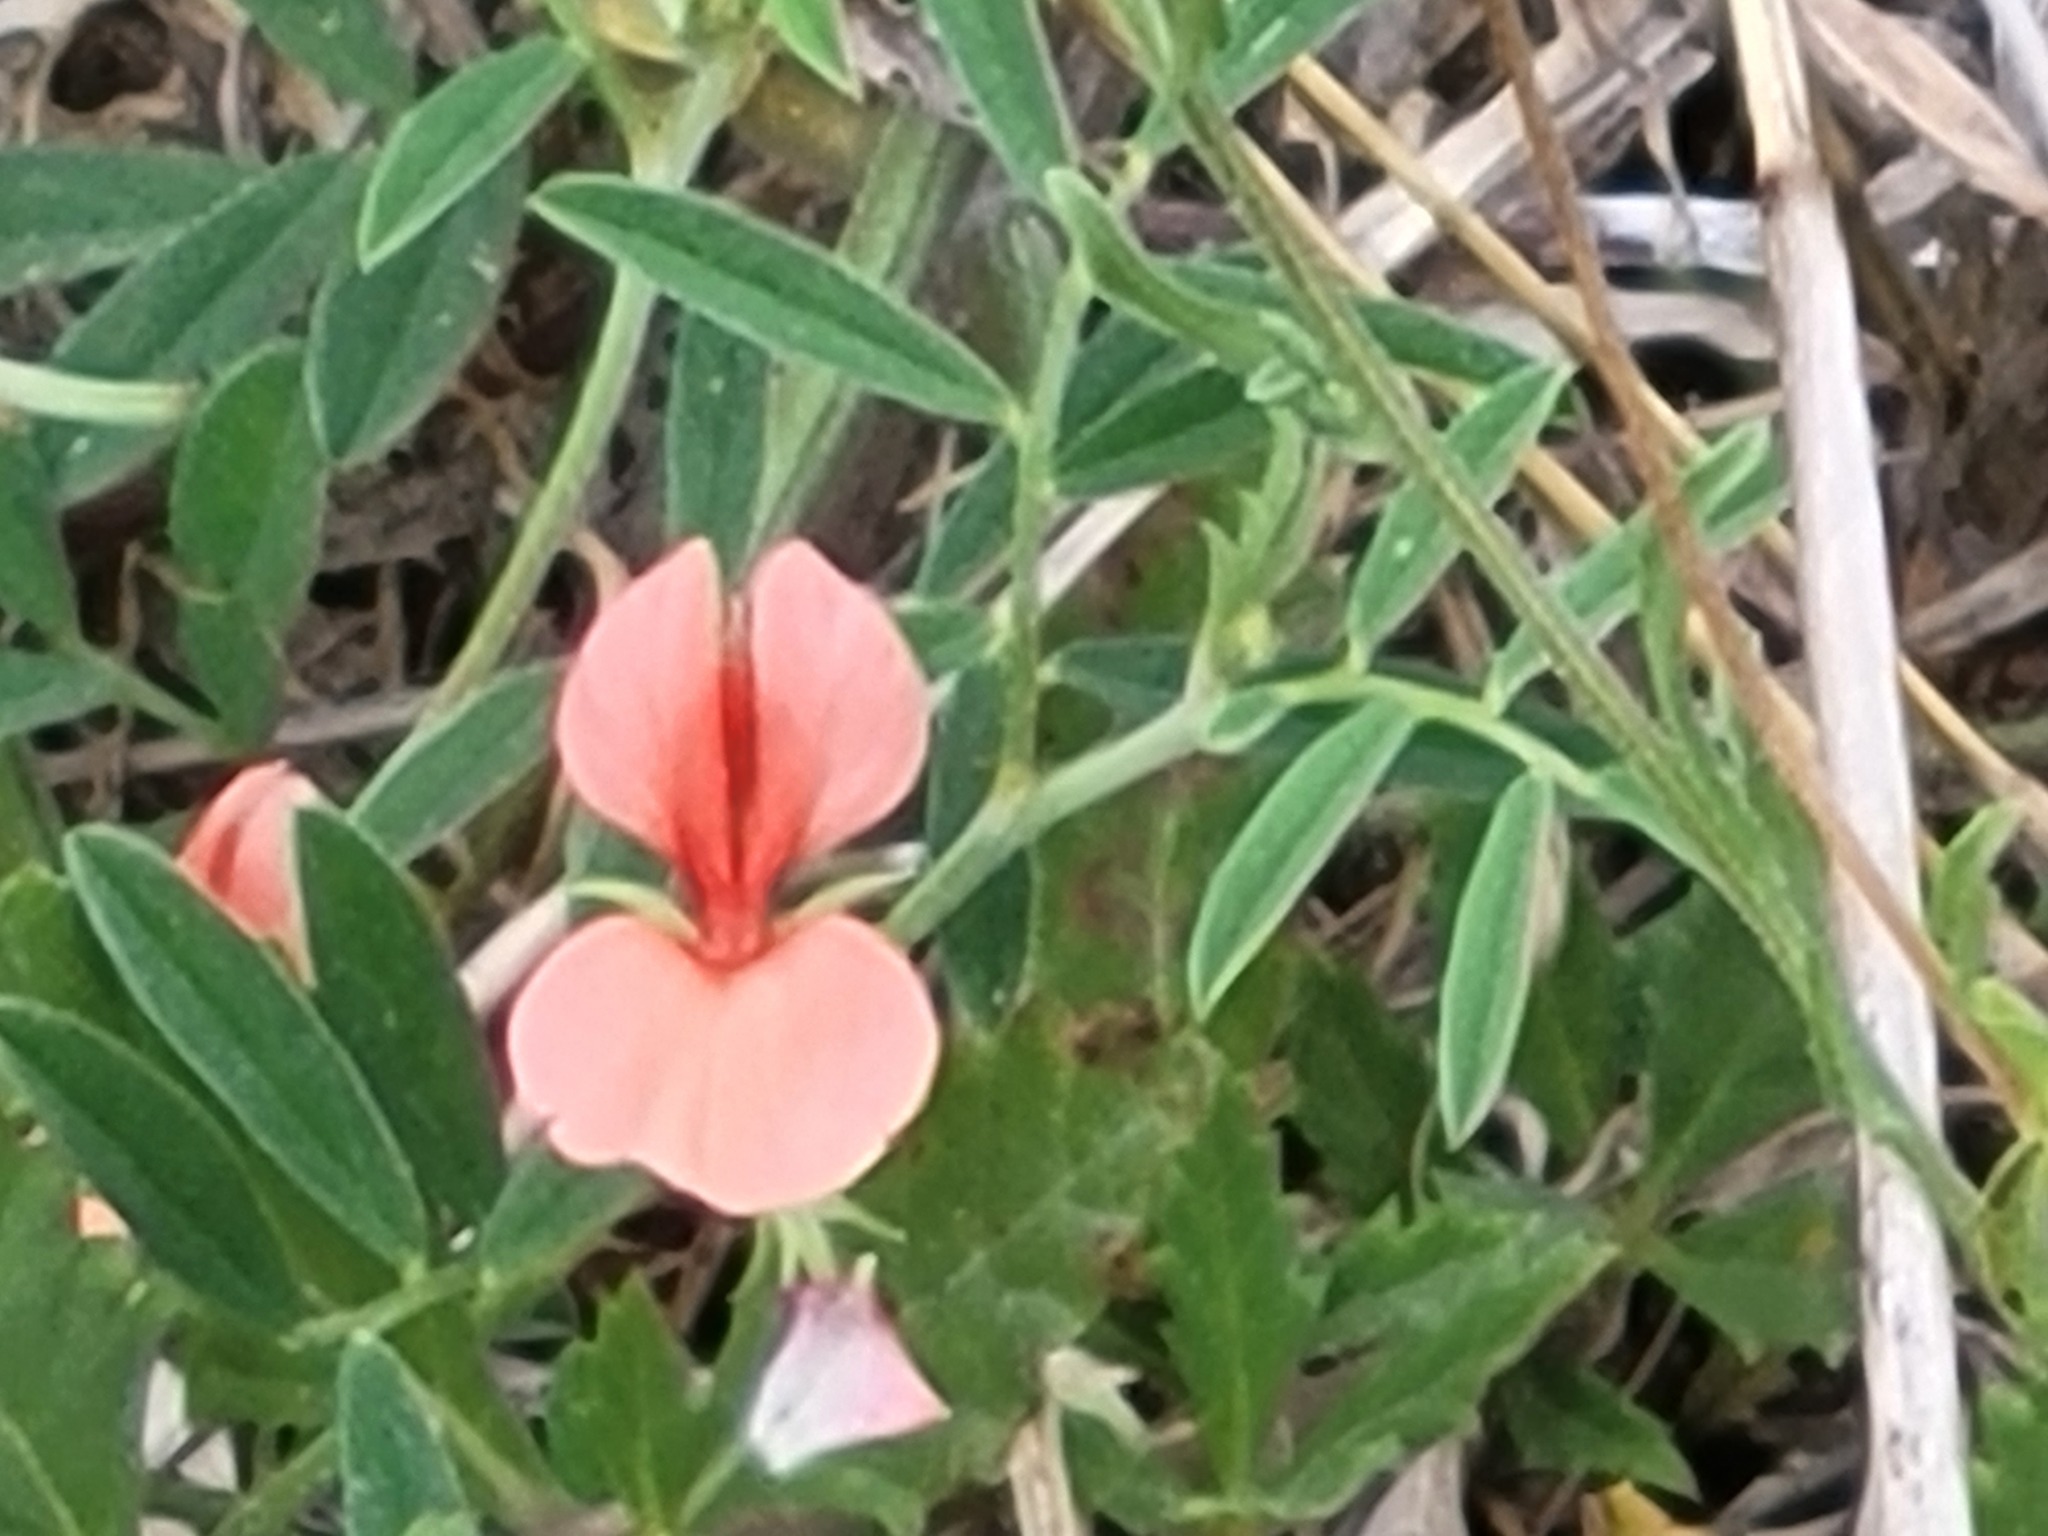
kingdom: Plantae
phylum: Tracheophyta
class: Magnoliopsida
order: Fabales
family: Fabaceae
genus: Indigofera
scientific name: Indigofera miniata
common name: Coast indigo
